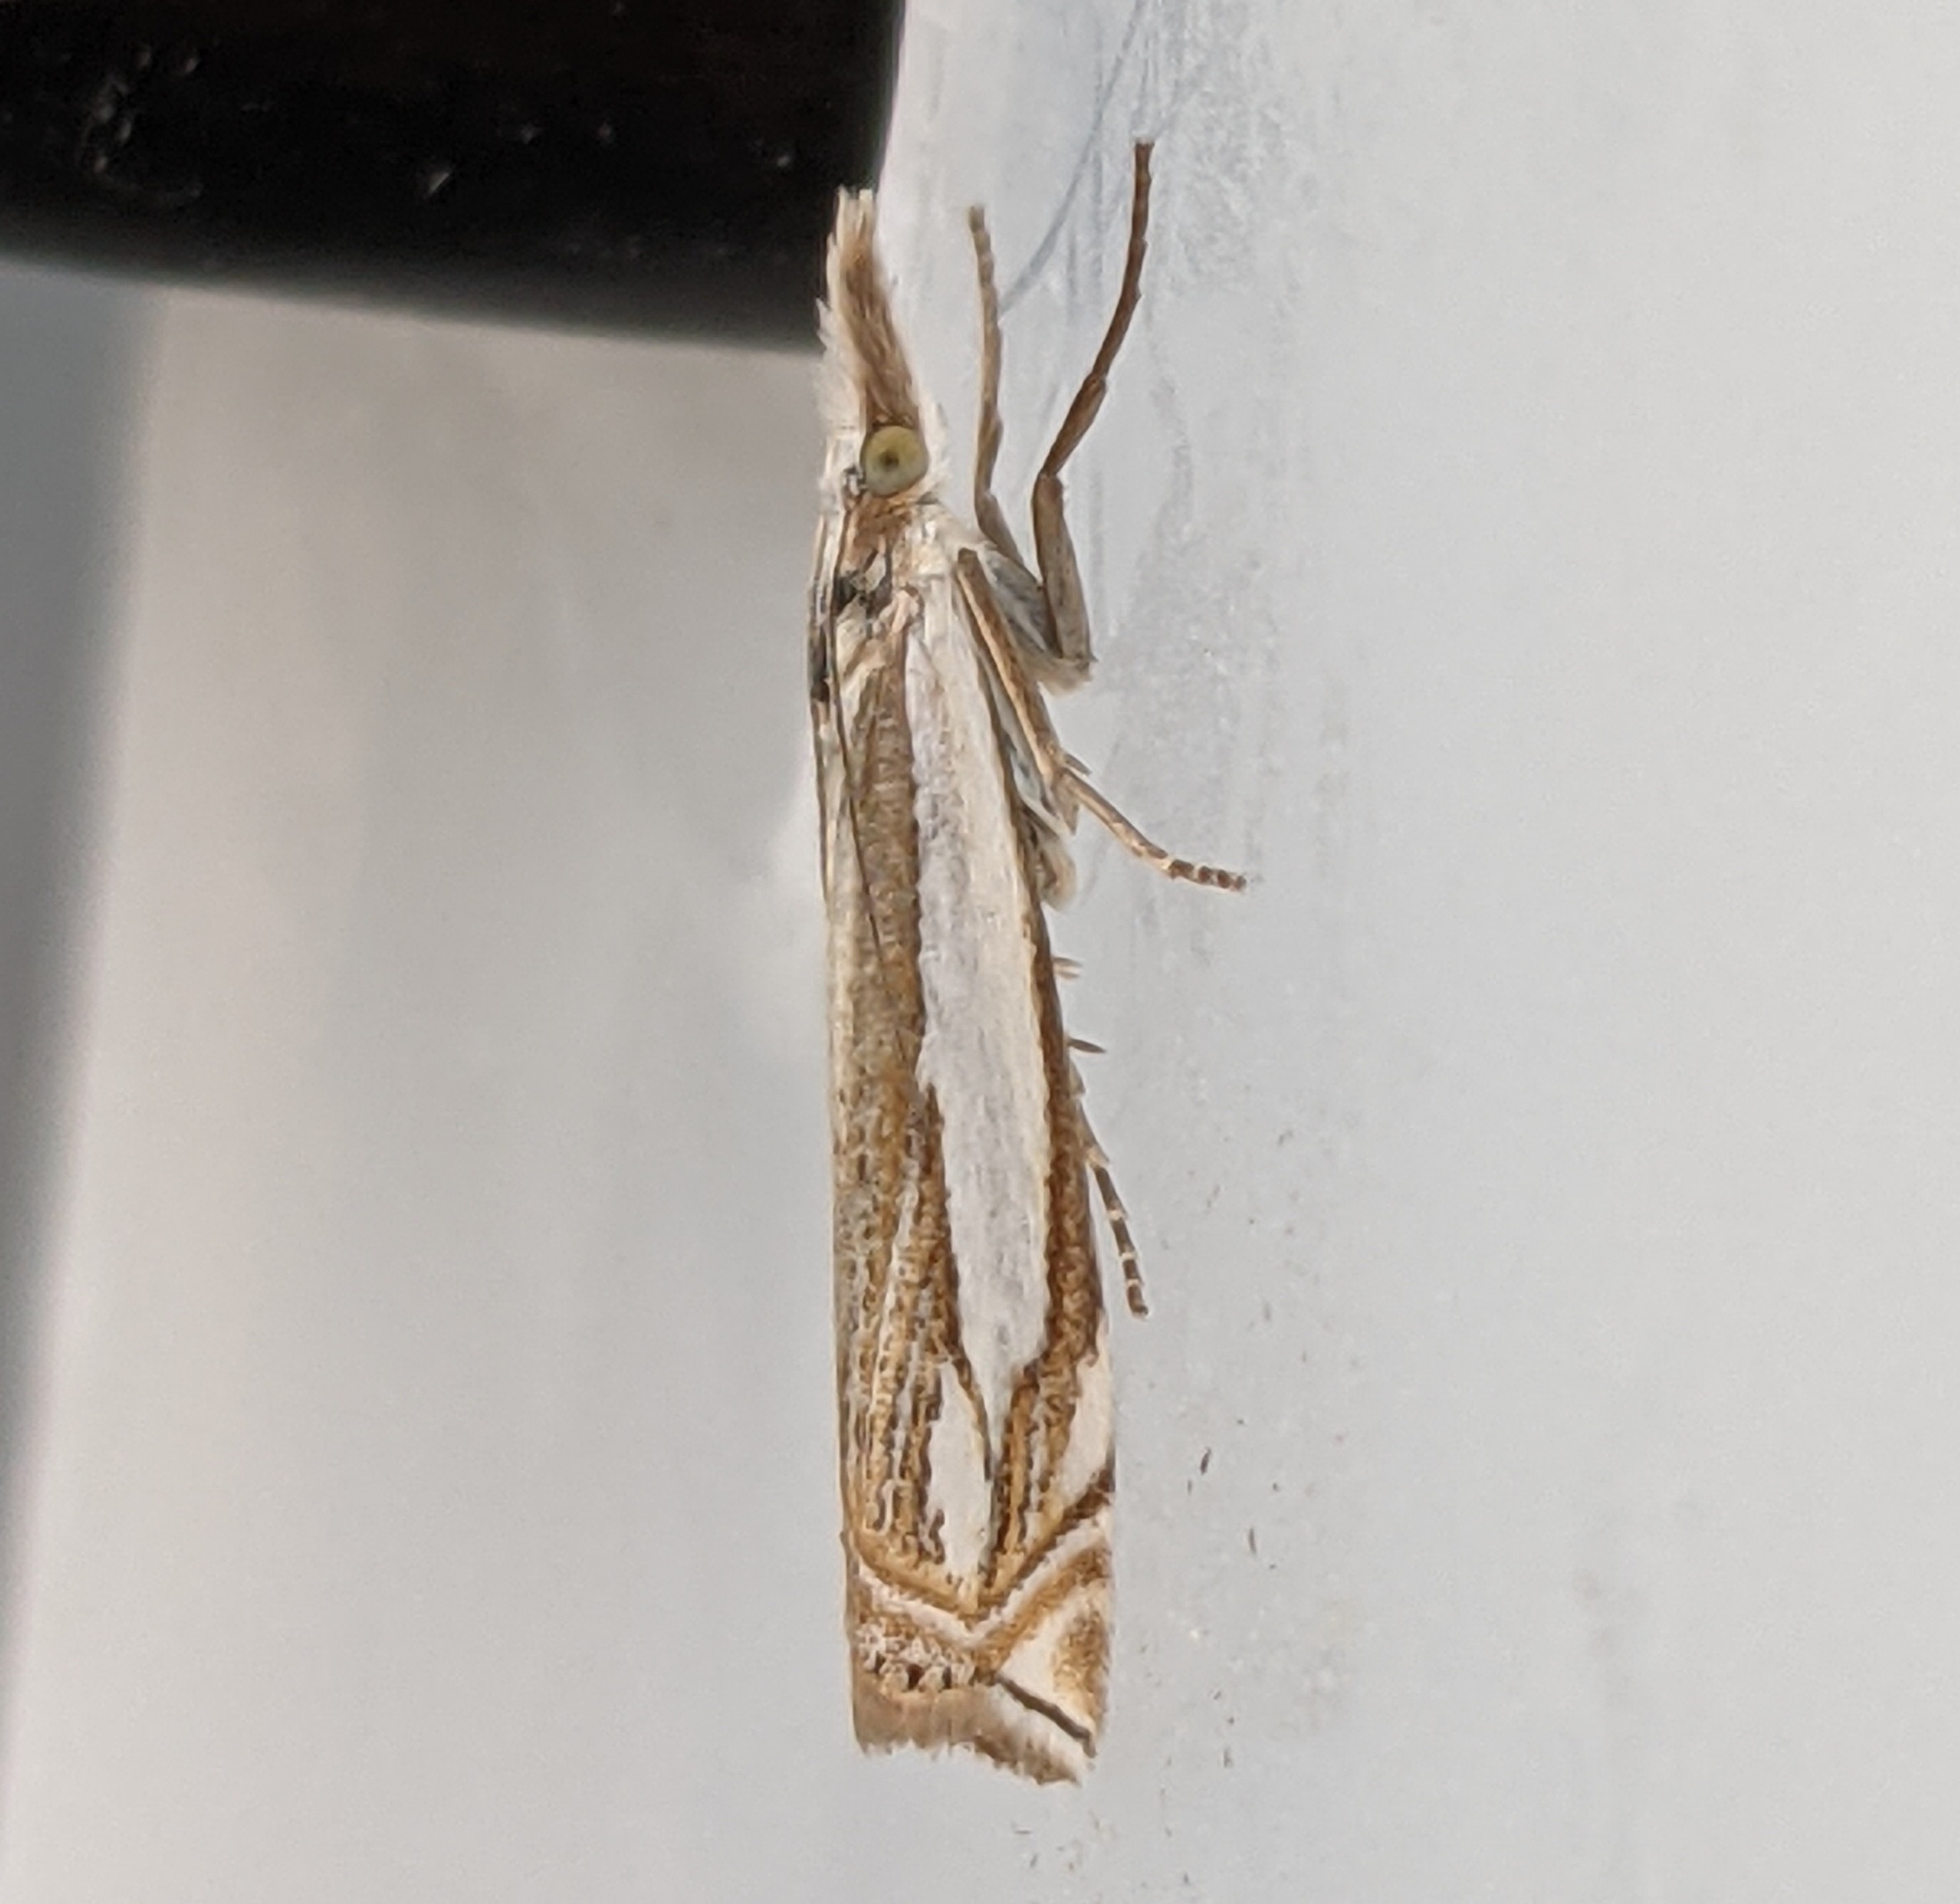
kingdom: Animalia
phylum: Arthropoda
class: Insecta
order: Lepidoptera
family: Crambidae
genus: Crambus
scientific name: Crambus pascuella
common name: Inlaid grass-veneer
